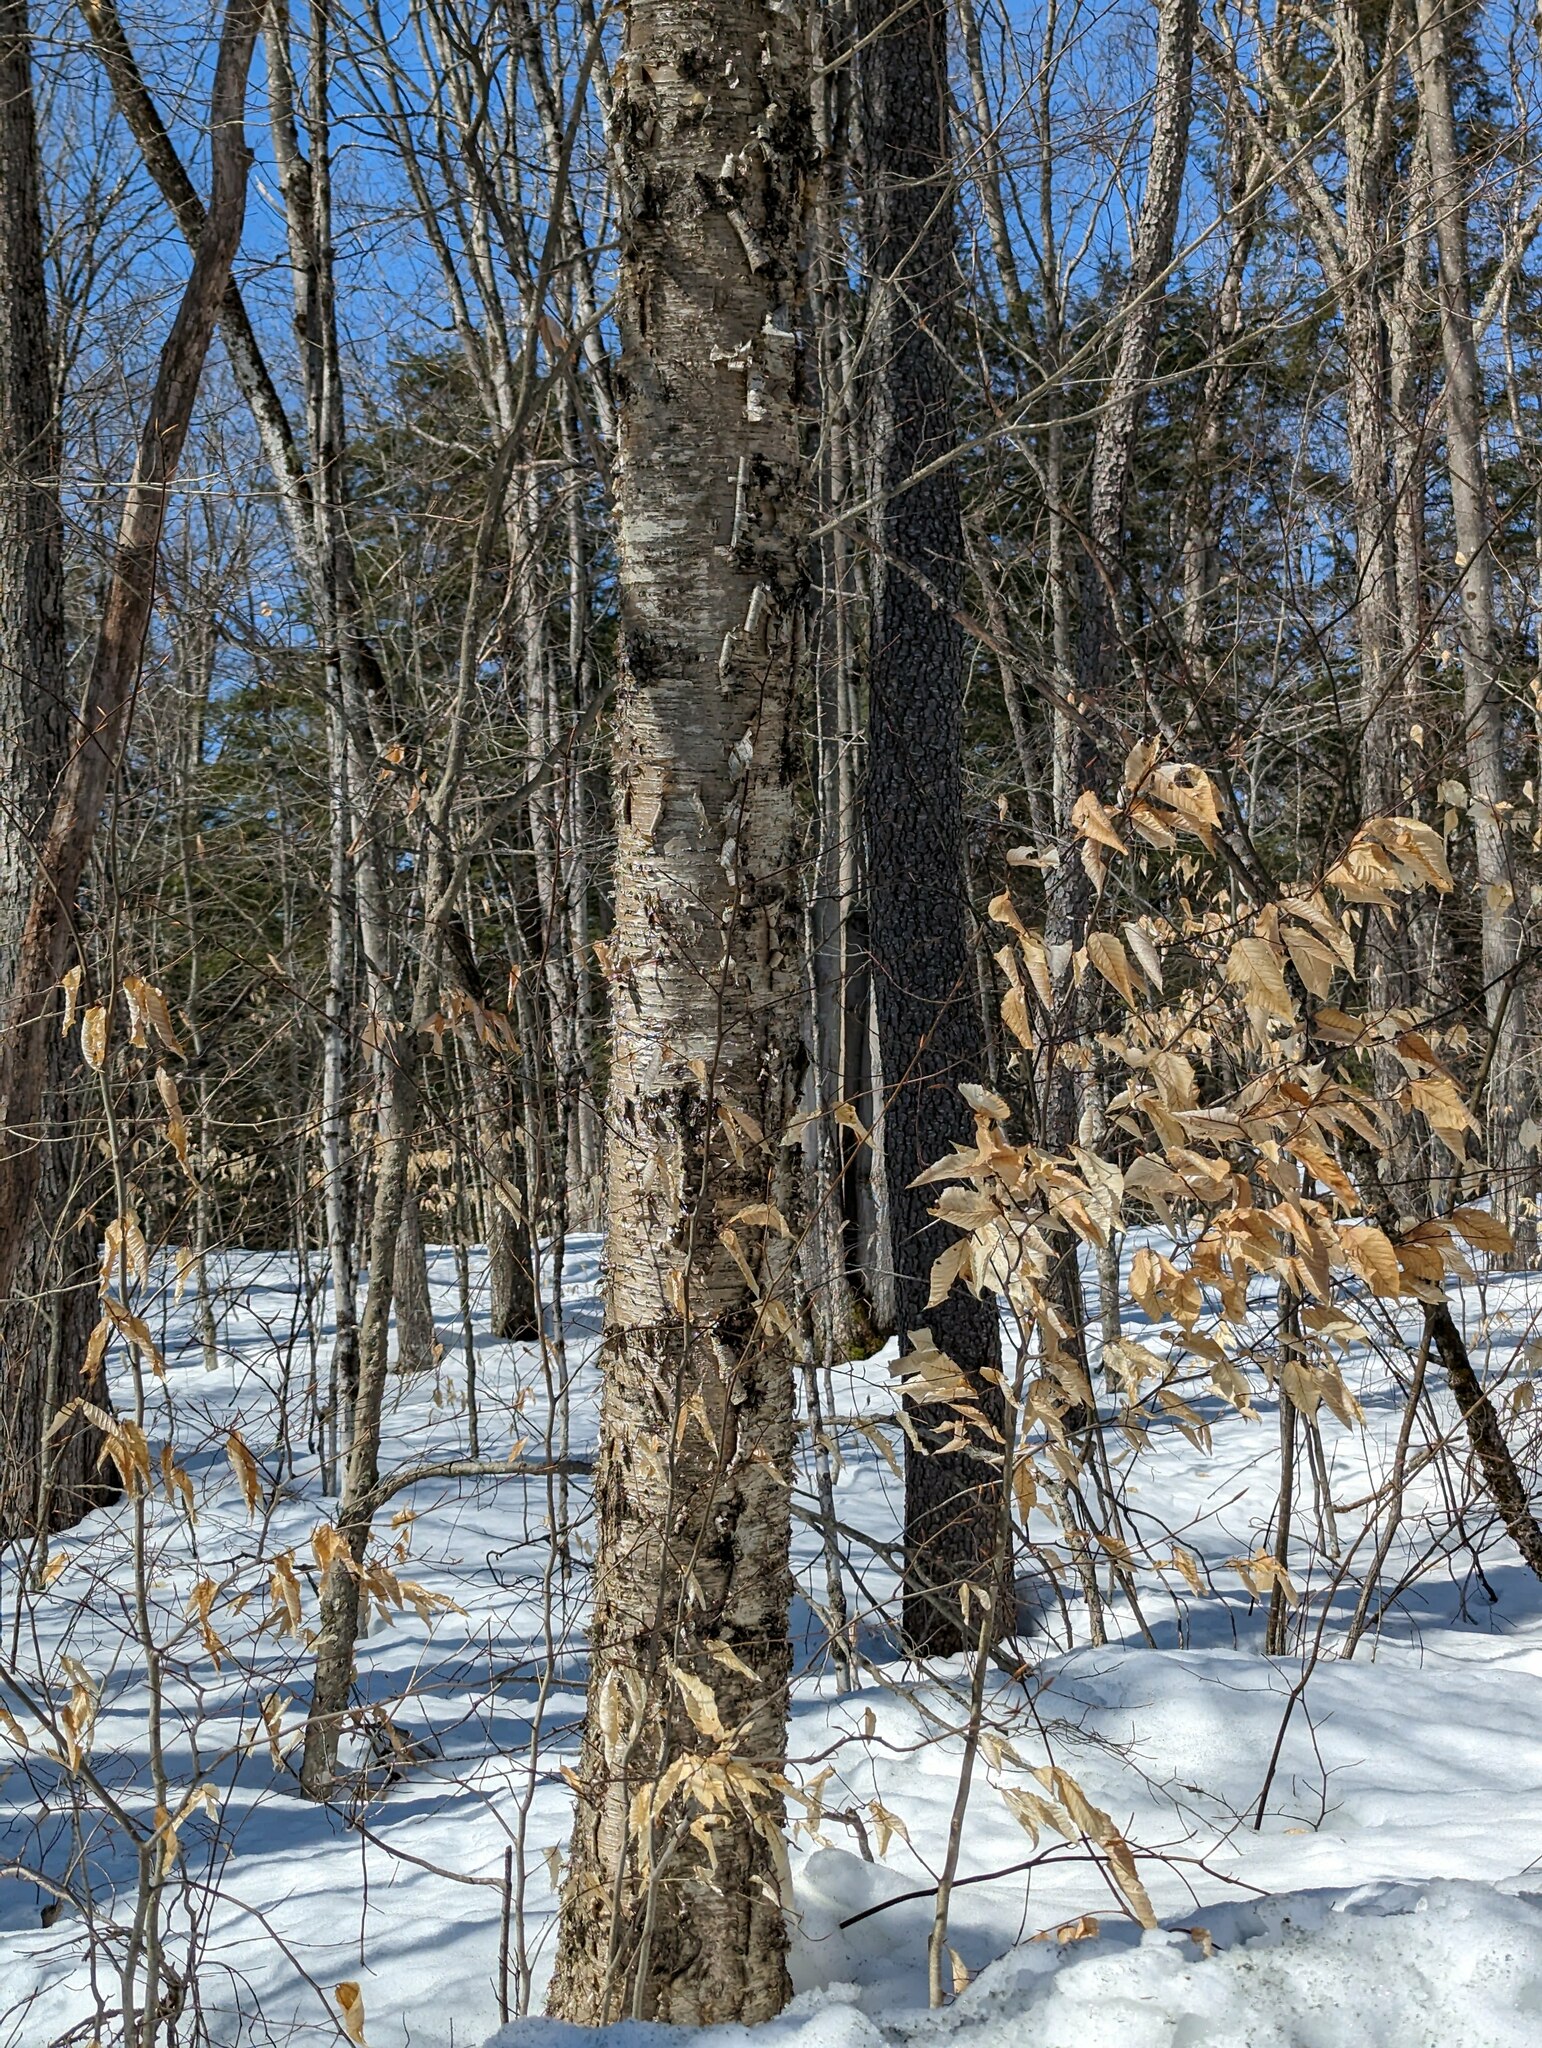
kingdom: Plantae
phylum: Tracheophyta
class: Magnoliopsida
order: Fagales
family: Fagaceae
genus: Fagus
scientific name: Fagus grandifolia
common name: American beech
